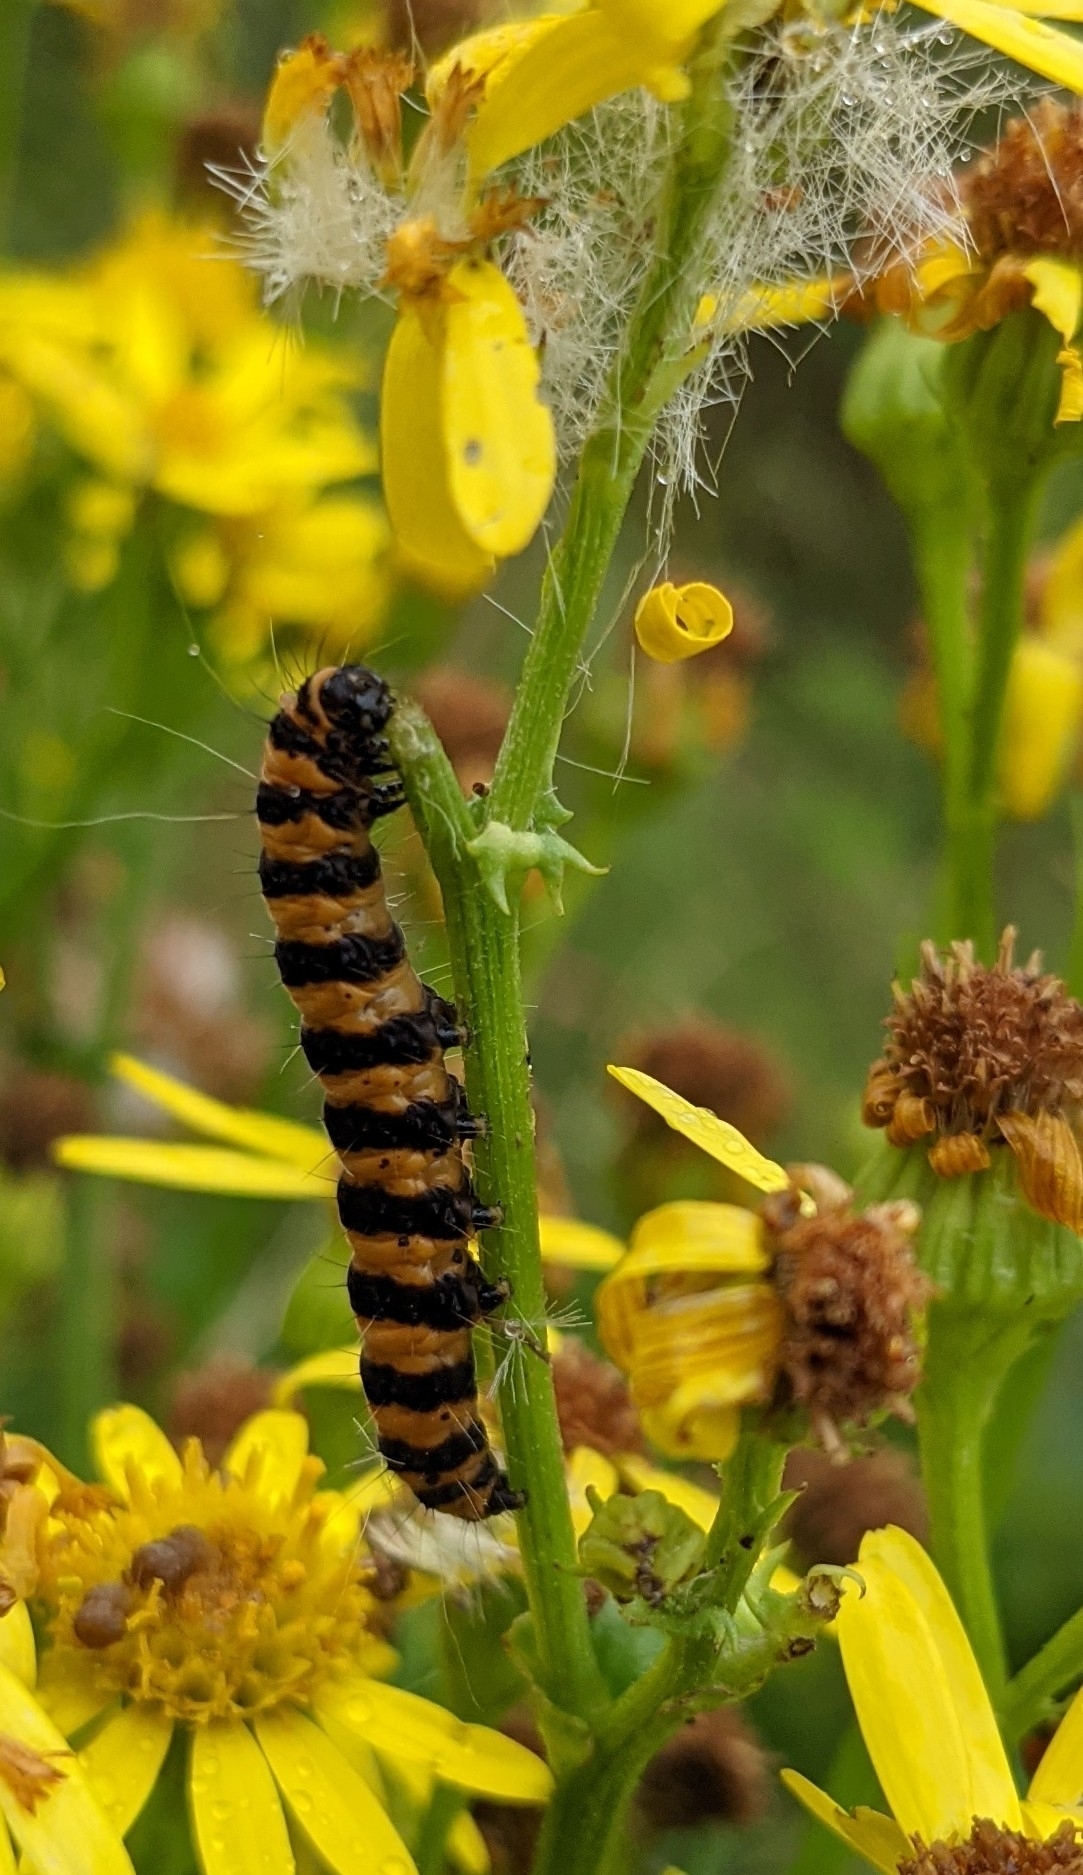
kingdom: Animalia
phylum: Arthropoda
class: Insecta
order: Lepidoptera
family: Erebidae
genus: Tyria
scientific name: Tyria jacobaeae
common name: Cinnabar
